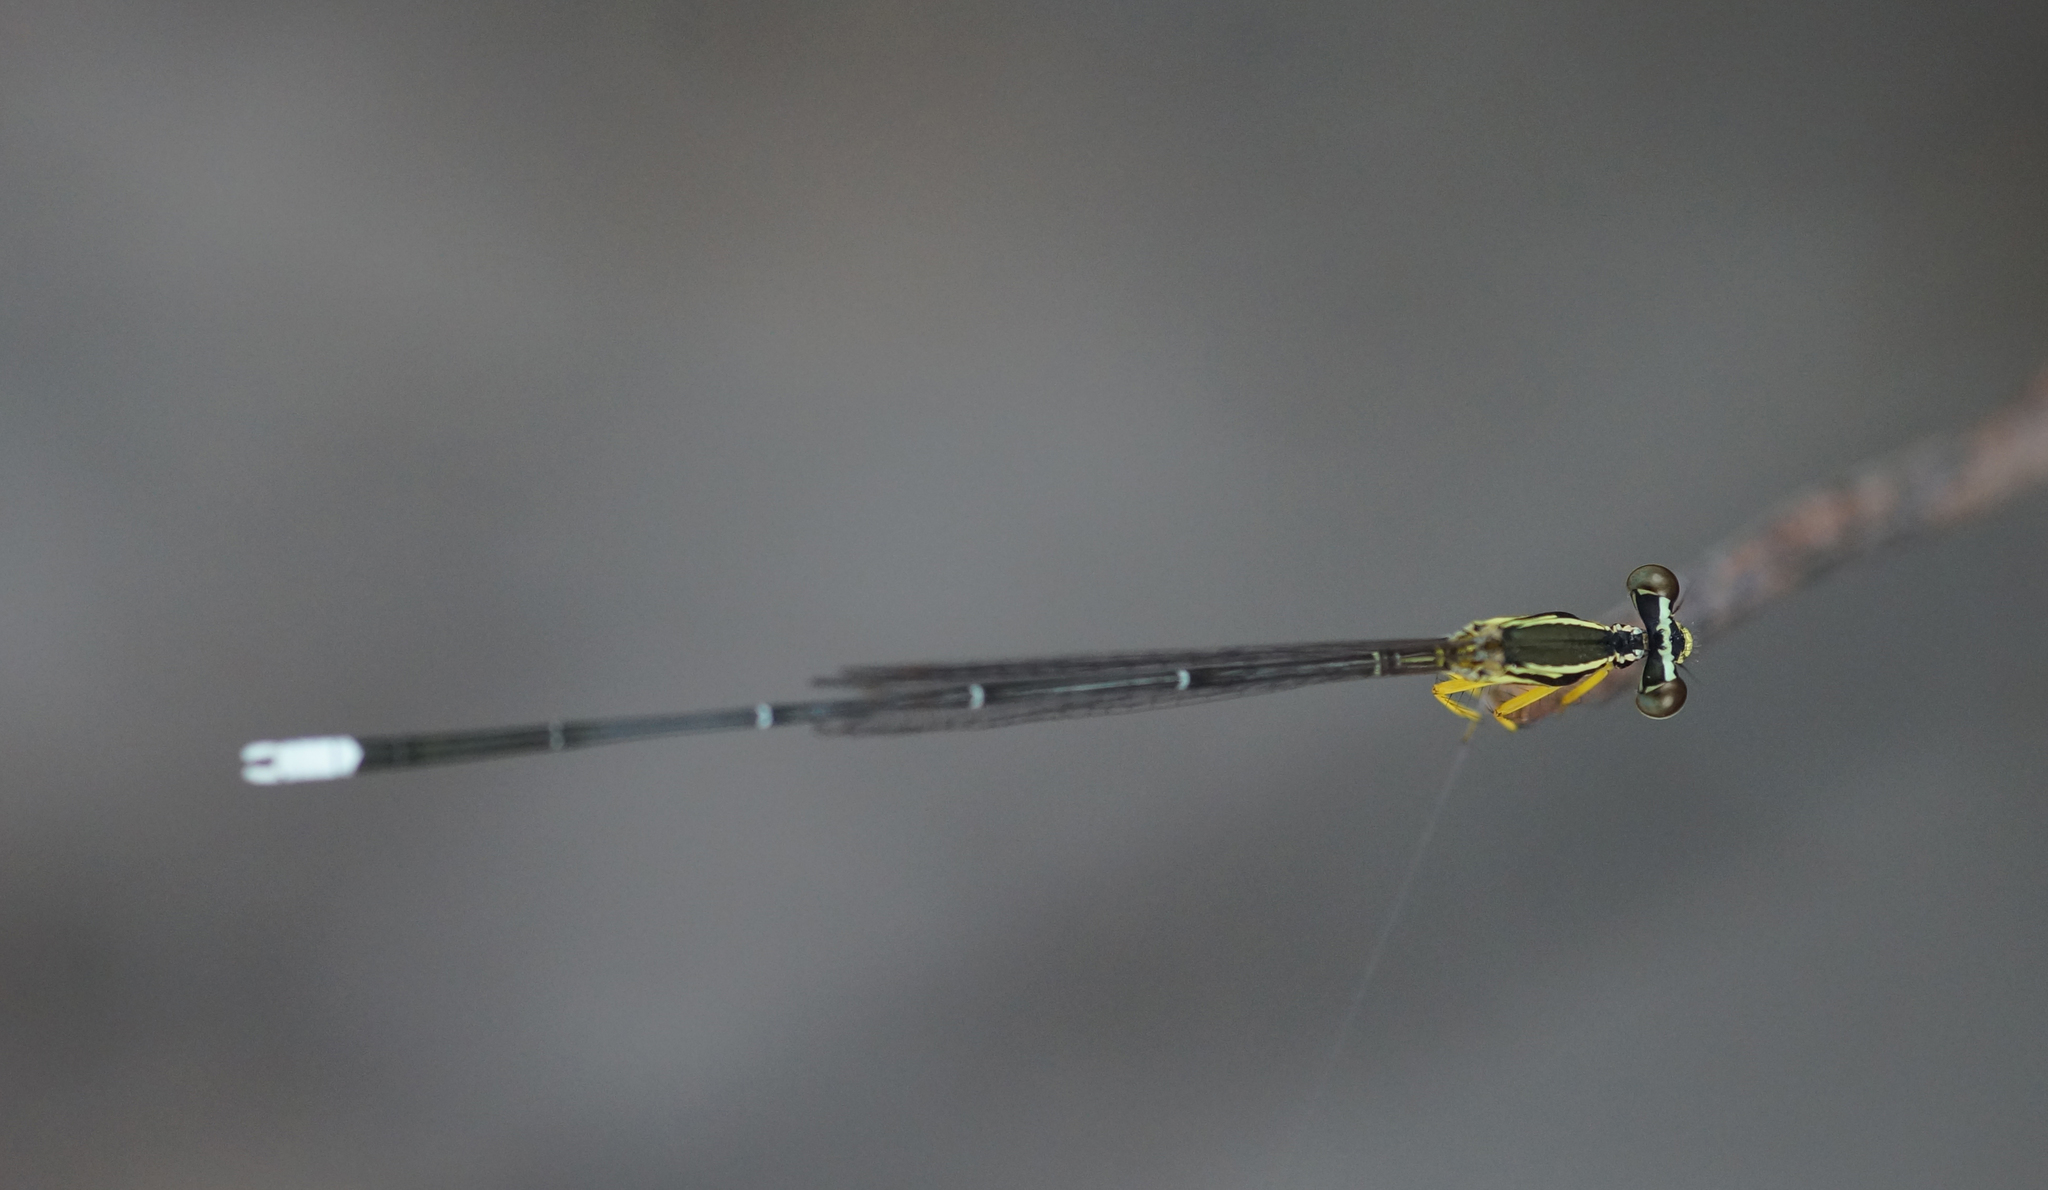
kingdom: Animalia
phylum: Arthropoda
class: Insecta
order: Odonata
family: Platycnemididae
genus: Copera
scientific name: Copera marginipes
